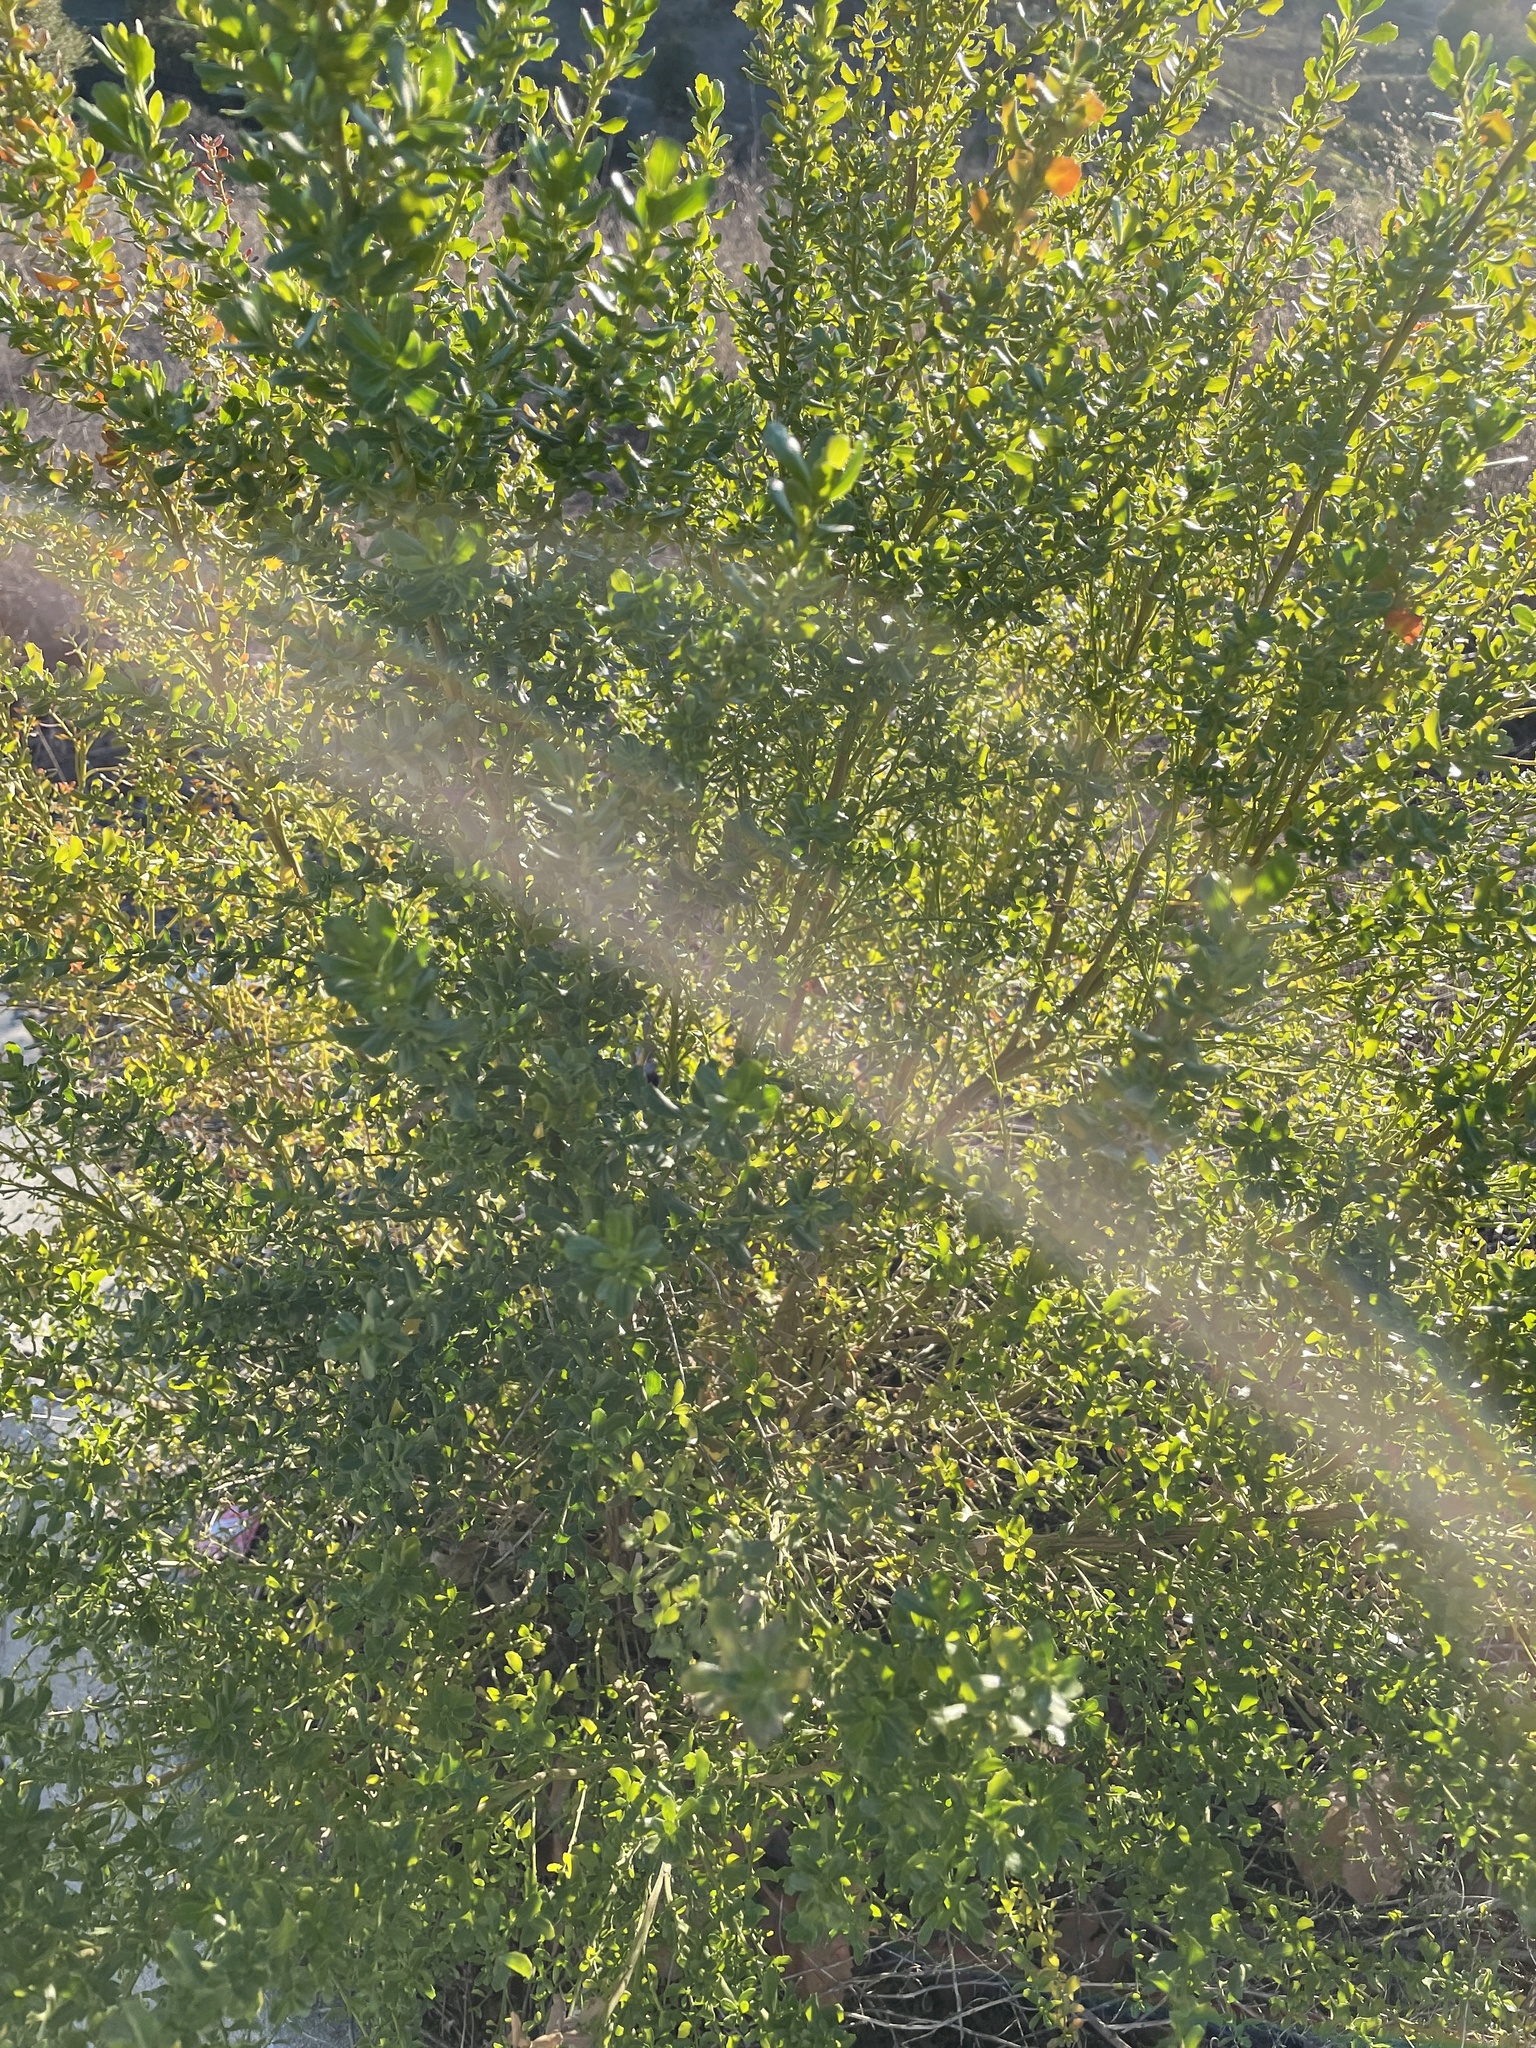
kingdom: Plantae
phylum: Tracheophyta
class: Magnoliopsida
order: Asterales
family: Asteraceae
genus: Baccharis
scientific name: Baccharis pilularis
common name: Coyotebrush
